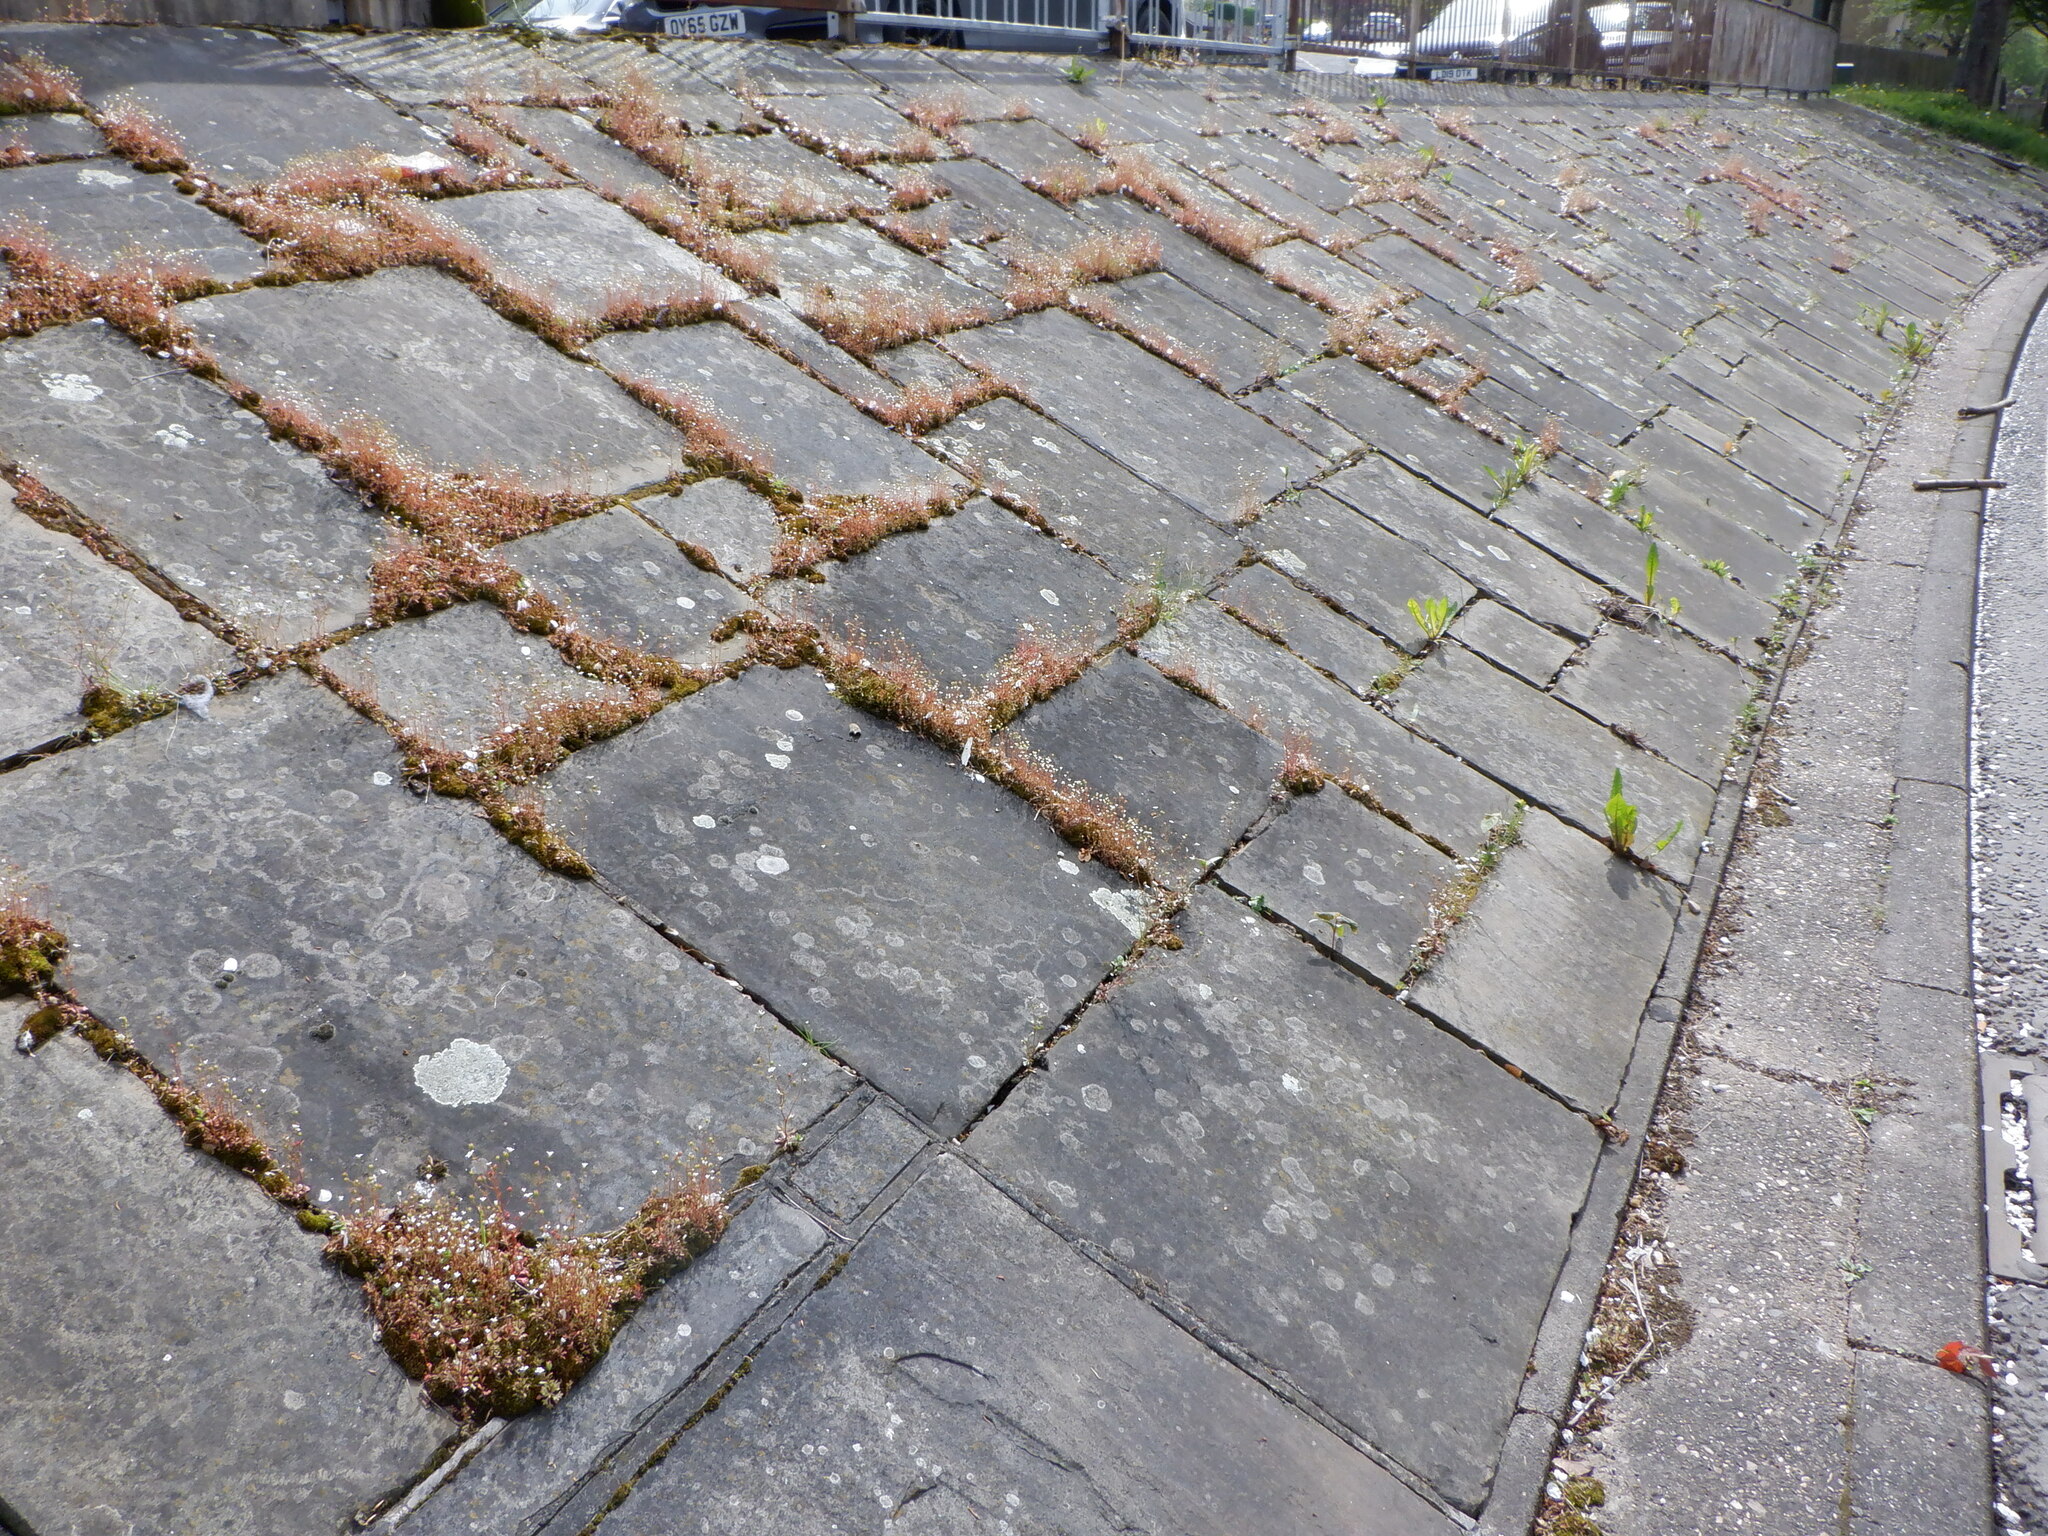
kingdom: Plantae
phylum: Tracheophyta
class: Magnoliopsida
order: Saxifragales
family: Saxifragaceae
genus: Saxifraga
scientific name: Saxifraga tridactylites
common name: Rue-leaved saxifrage
